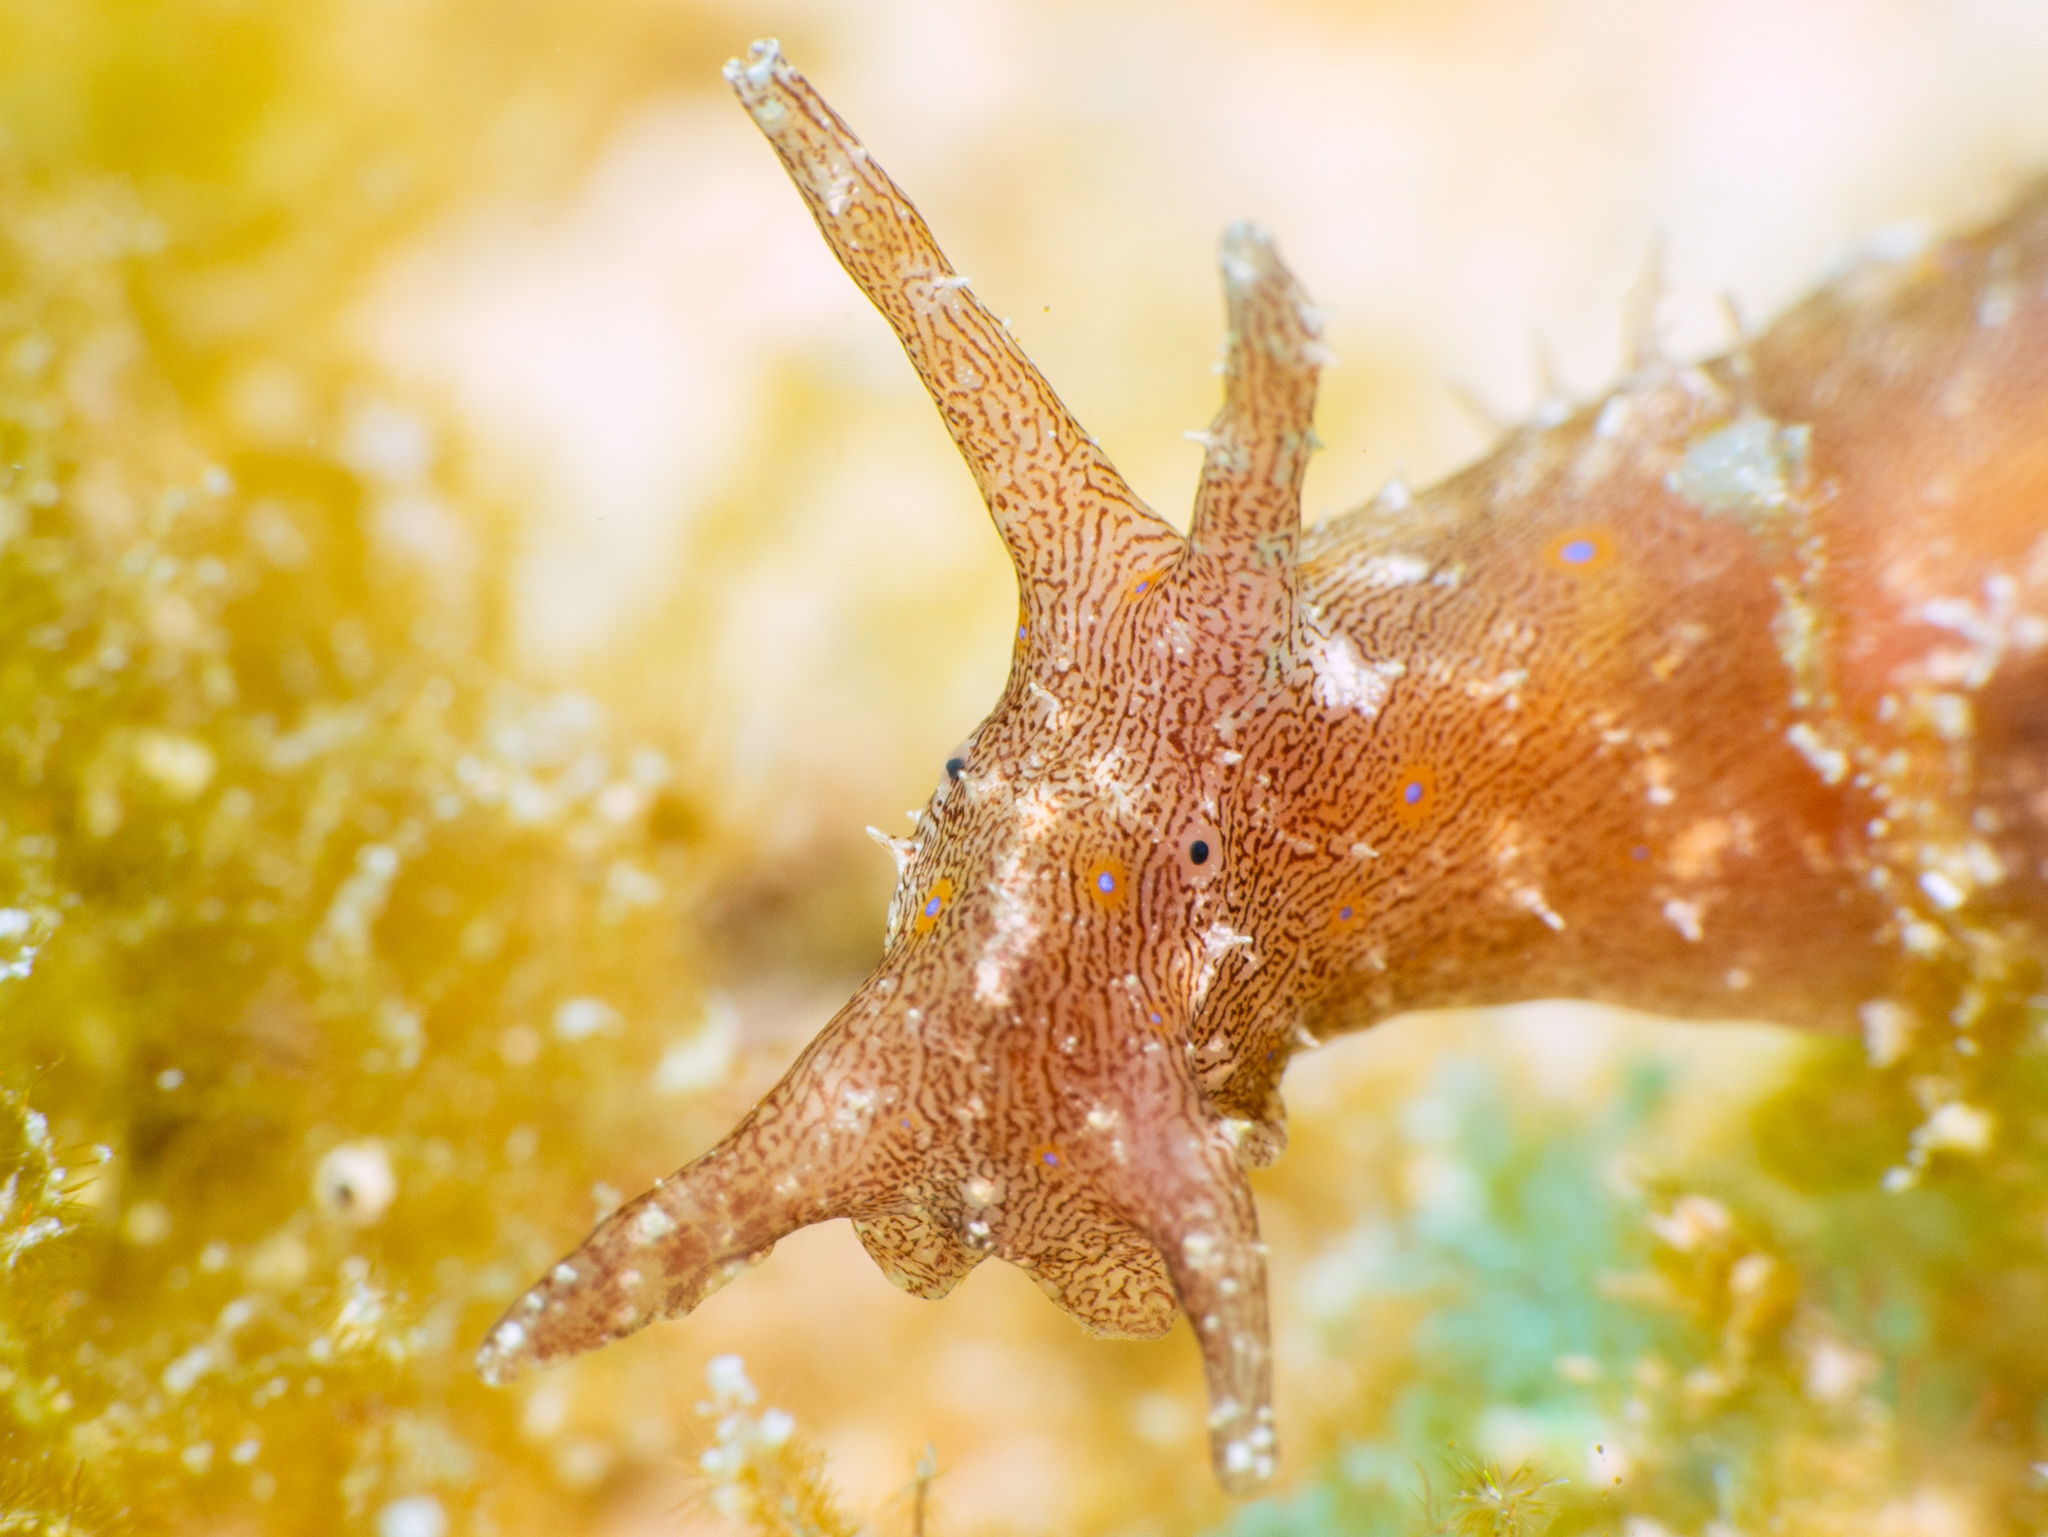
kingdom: Animalia
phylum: Mollusca
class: Gastropoda
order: Aplysiida
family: Aplysiidae
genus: Stylocheilus
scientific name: Stylocheilus polyomma
